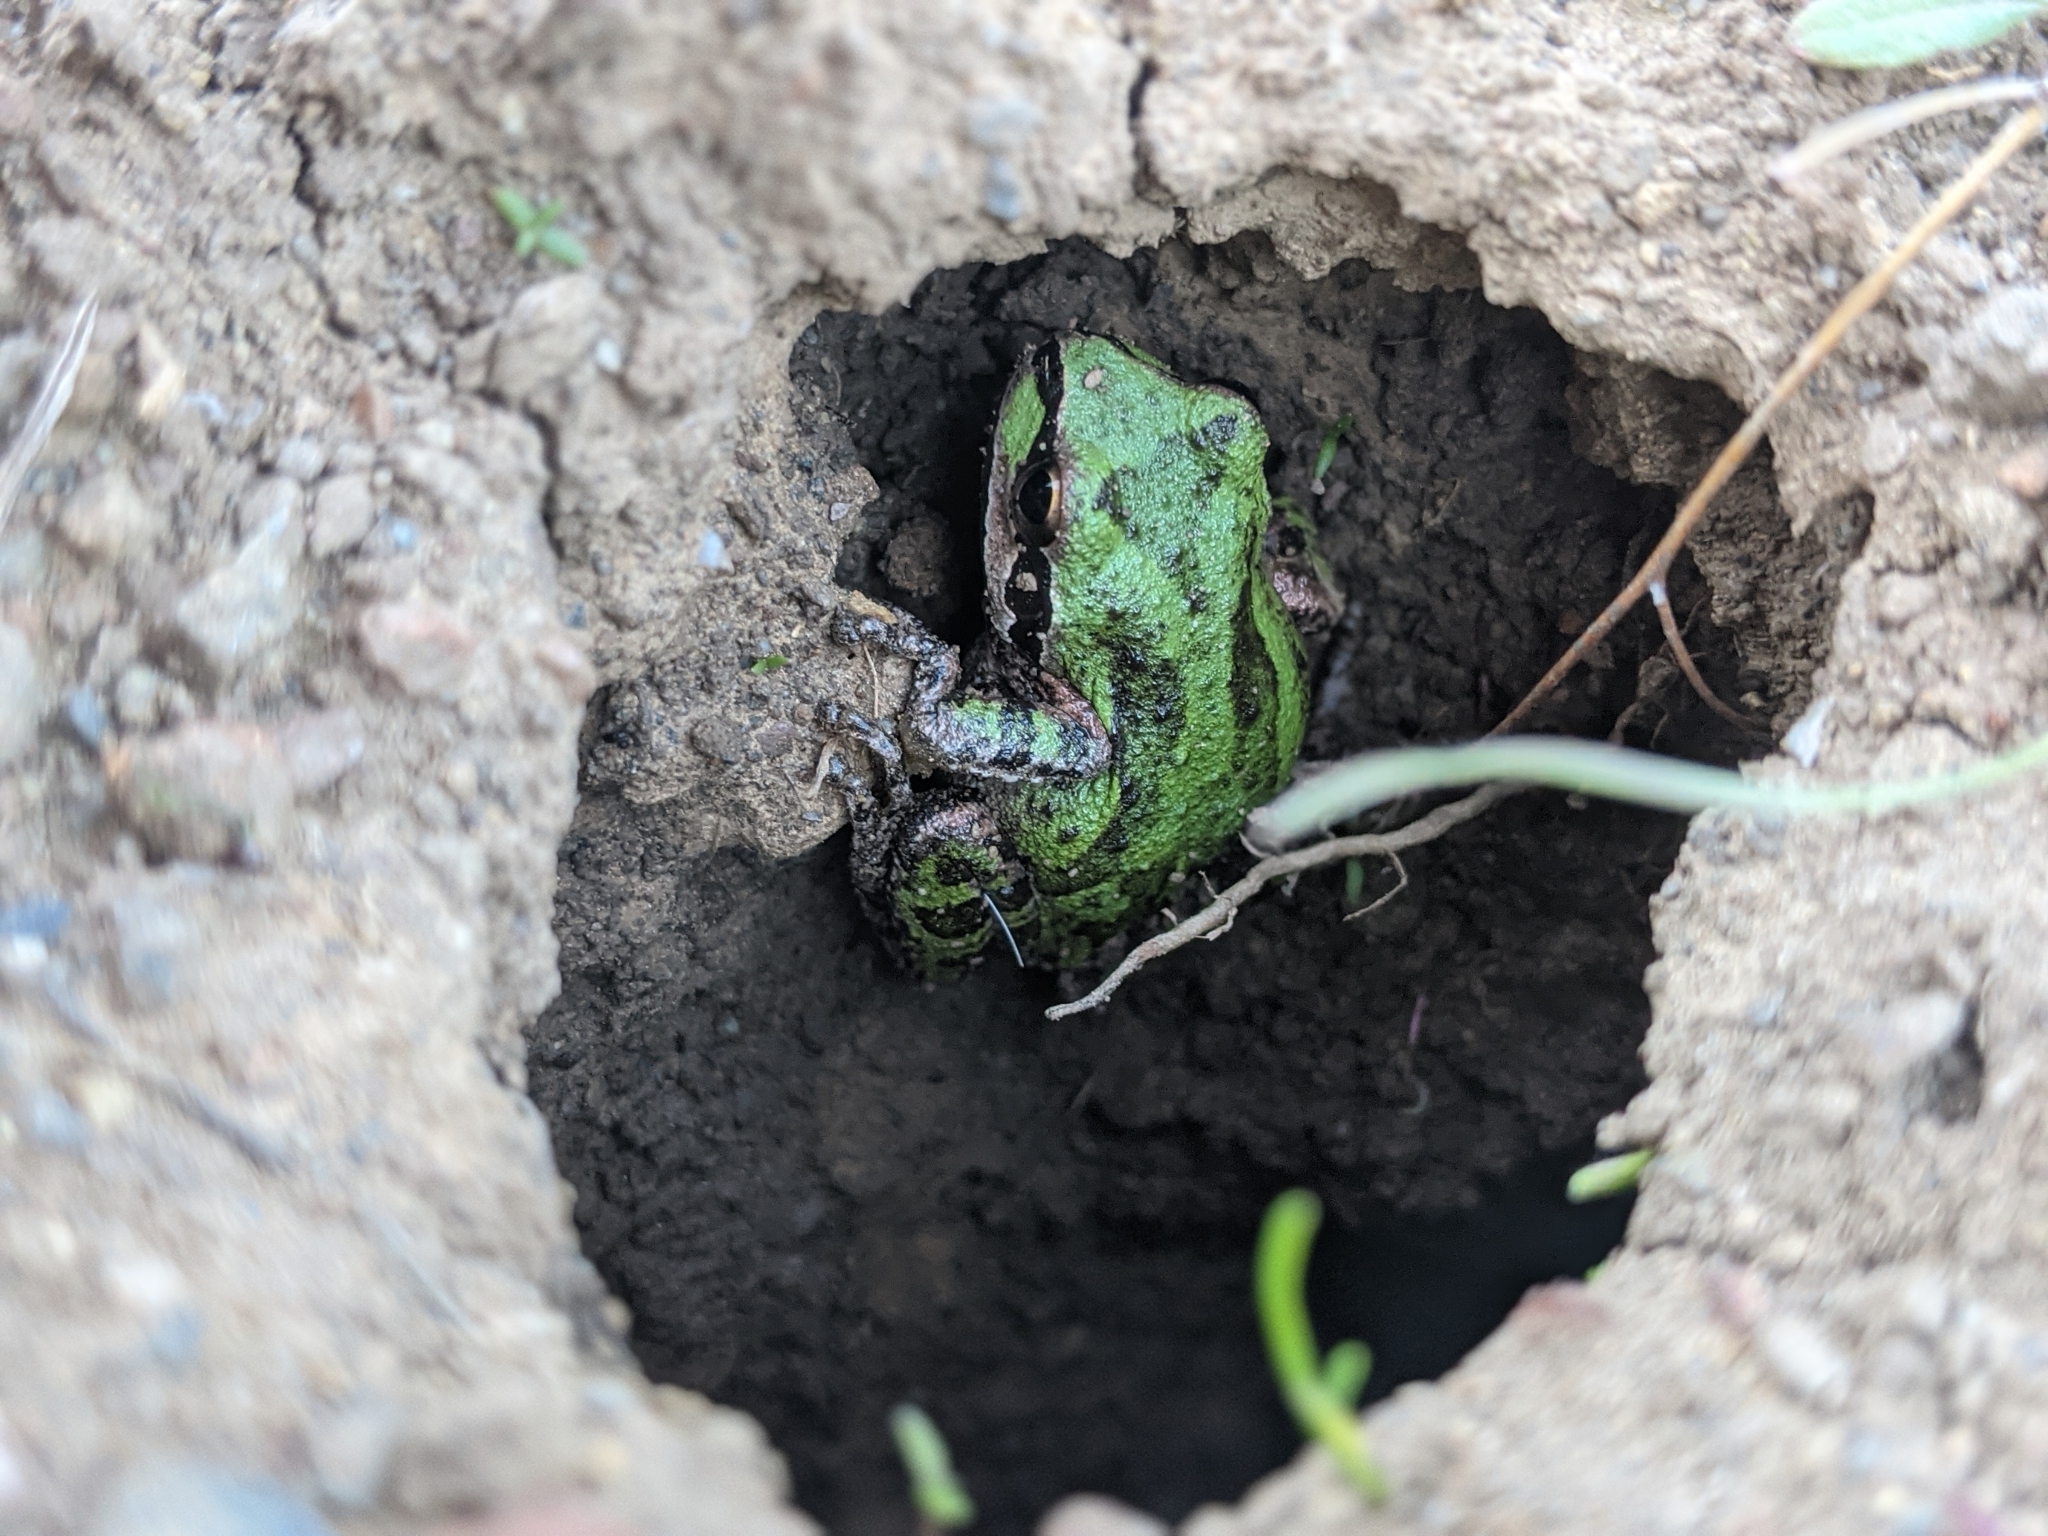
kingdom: Animalia
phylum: Chordata
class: Amphibia
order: Anura
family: Hylidae
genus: Pseudacris
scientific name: Pseudacris regilla
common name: Pacific chorus frog
